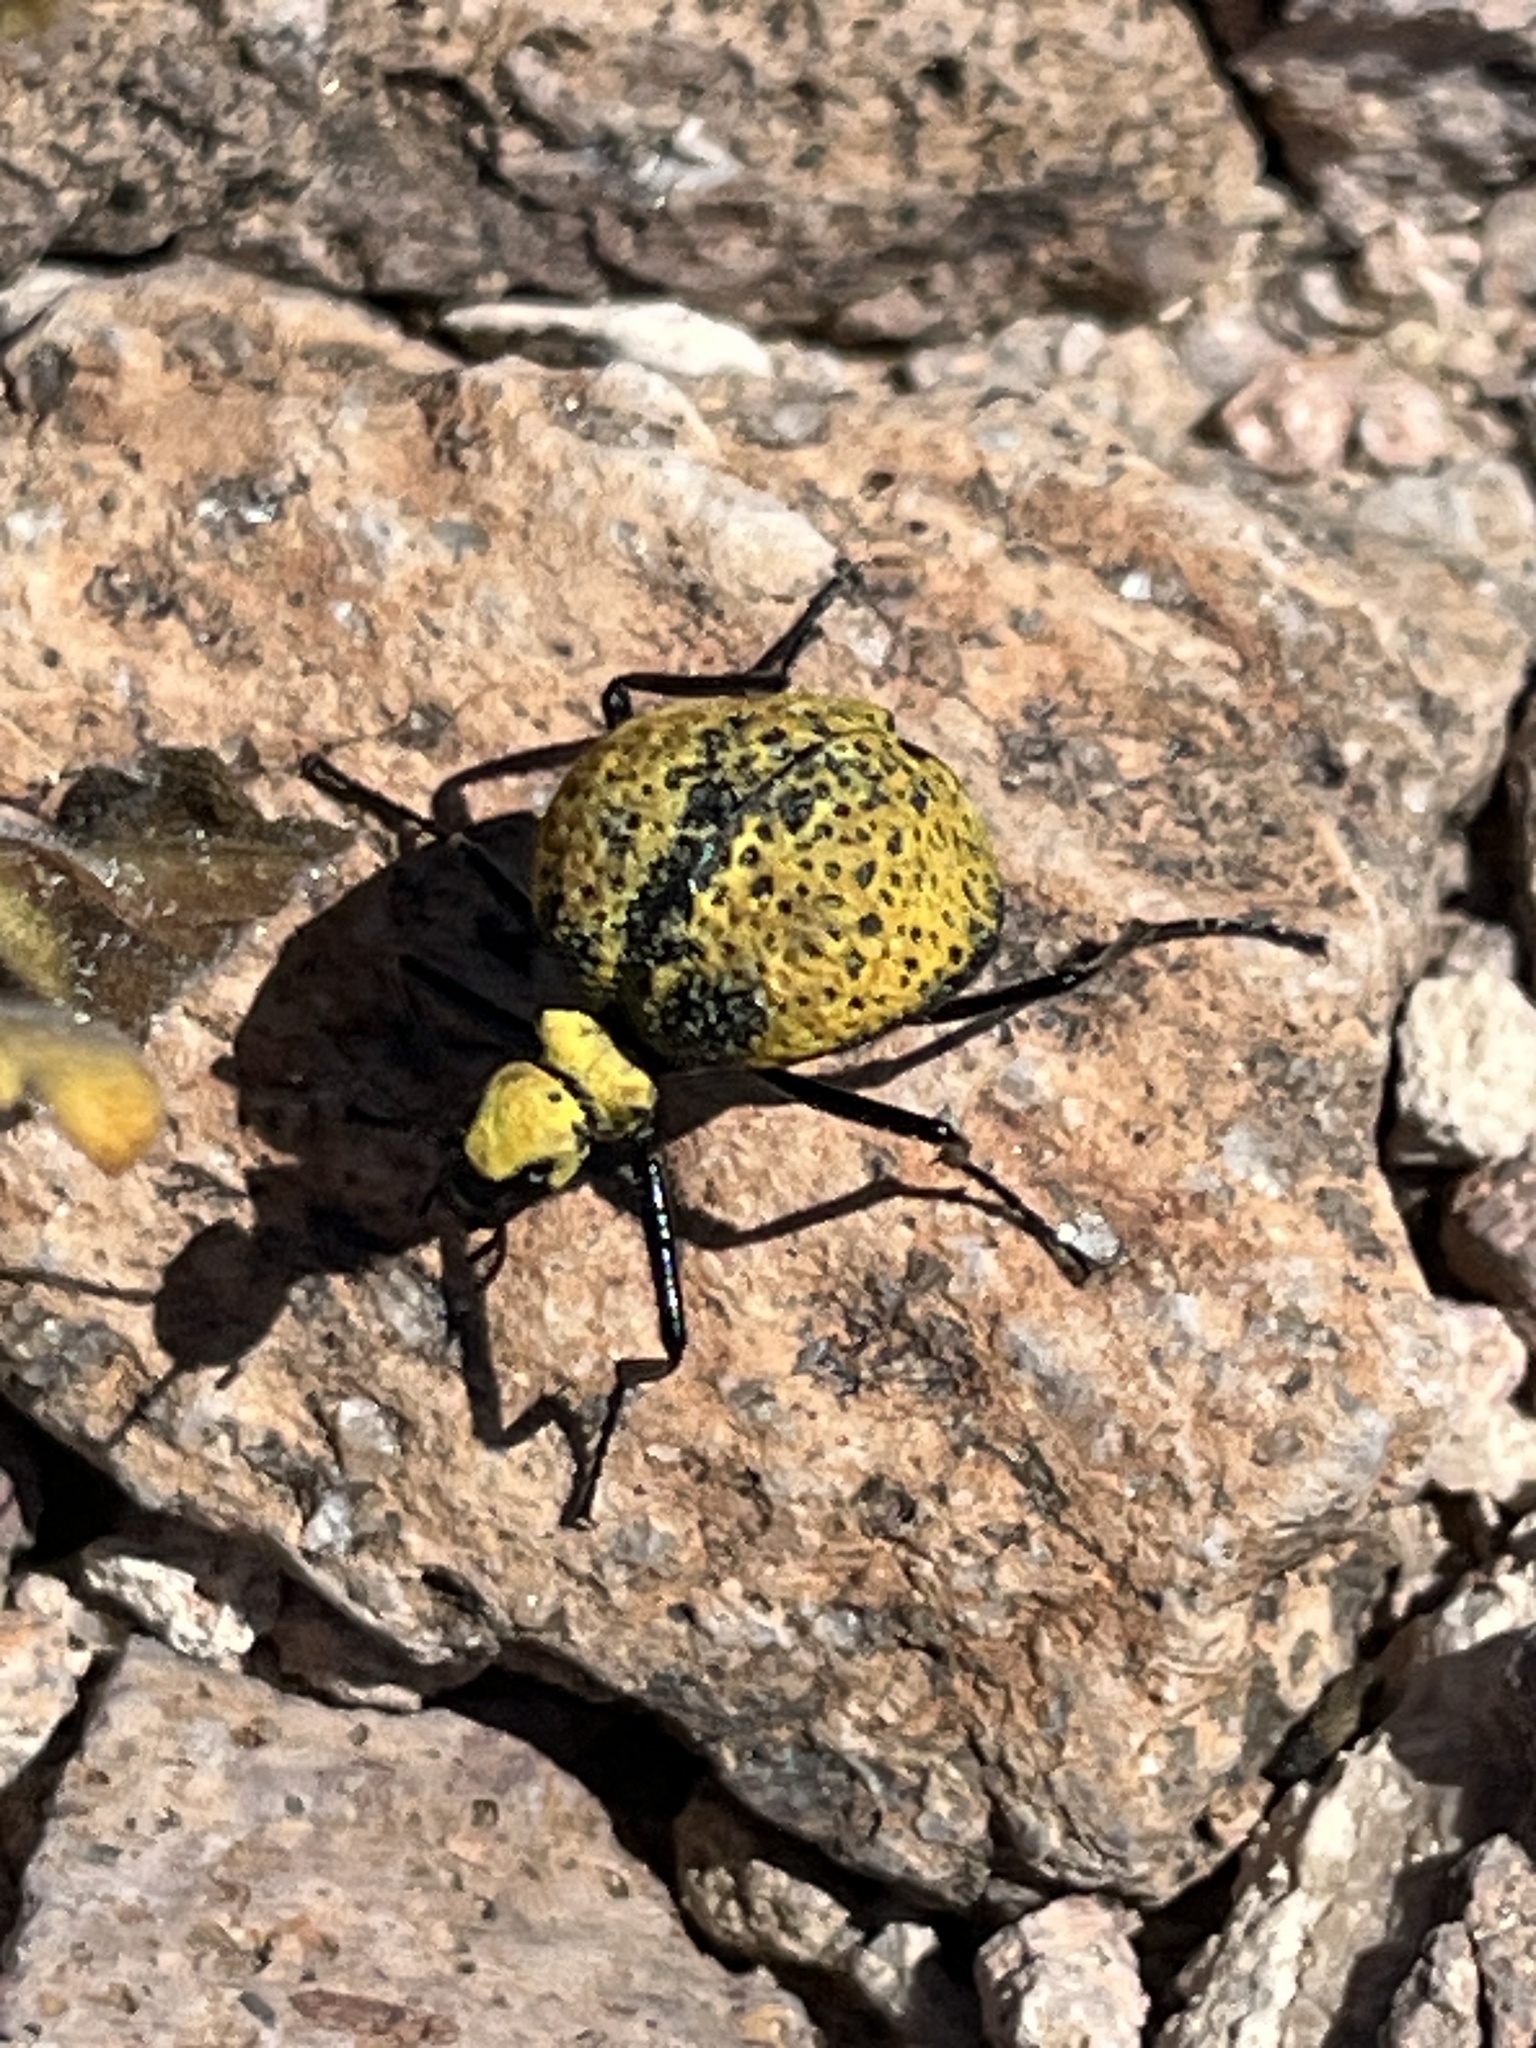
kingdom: Animalia
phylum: Arthropoda
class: Insecta
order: Coleoptera
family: Meloidae
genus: Cysteodemus
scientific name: Cysteodemus armatus
